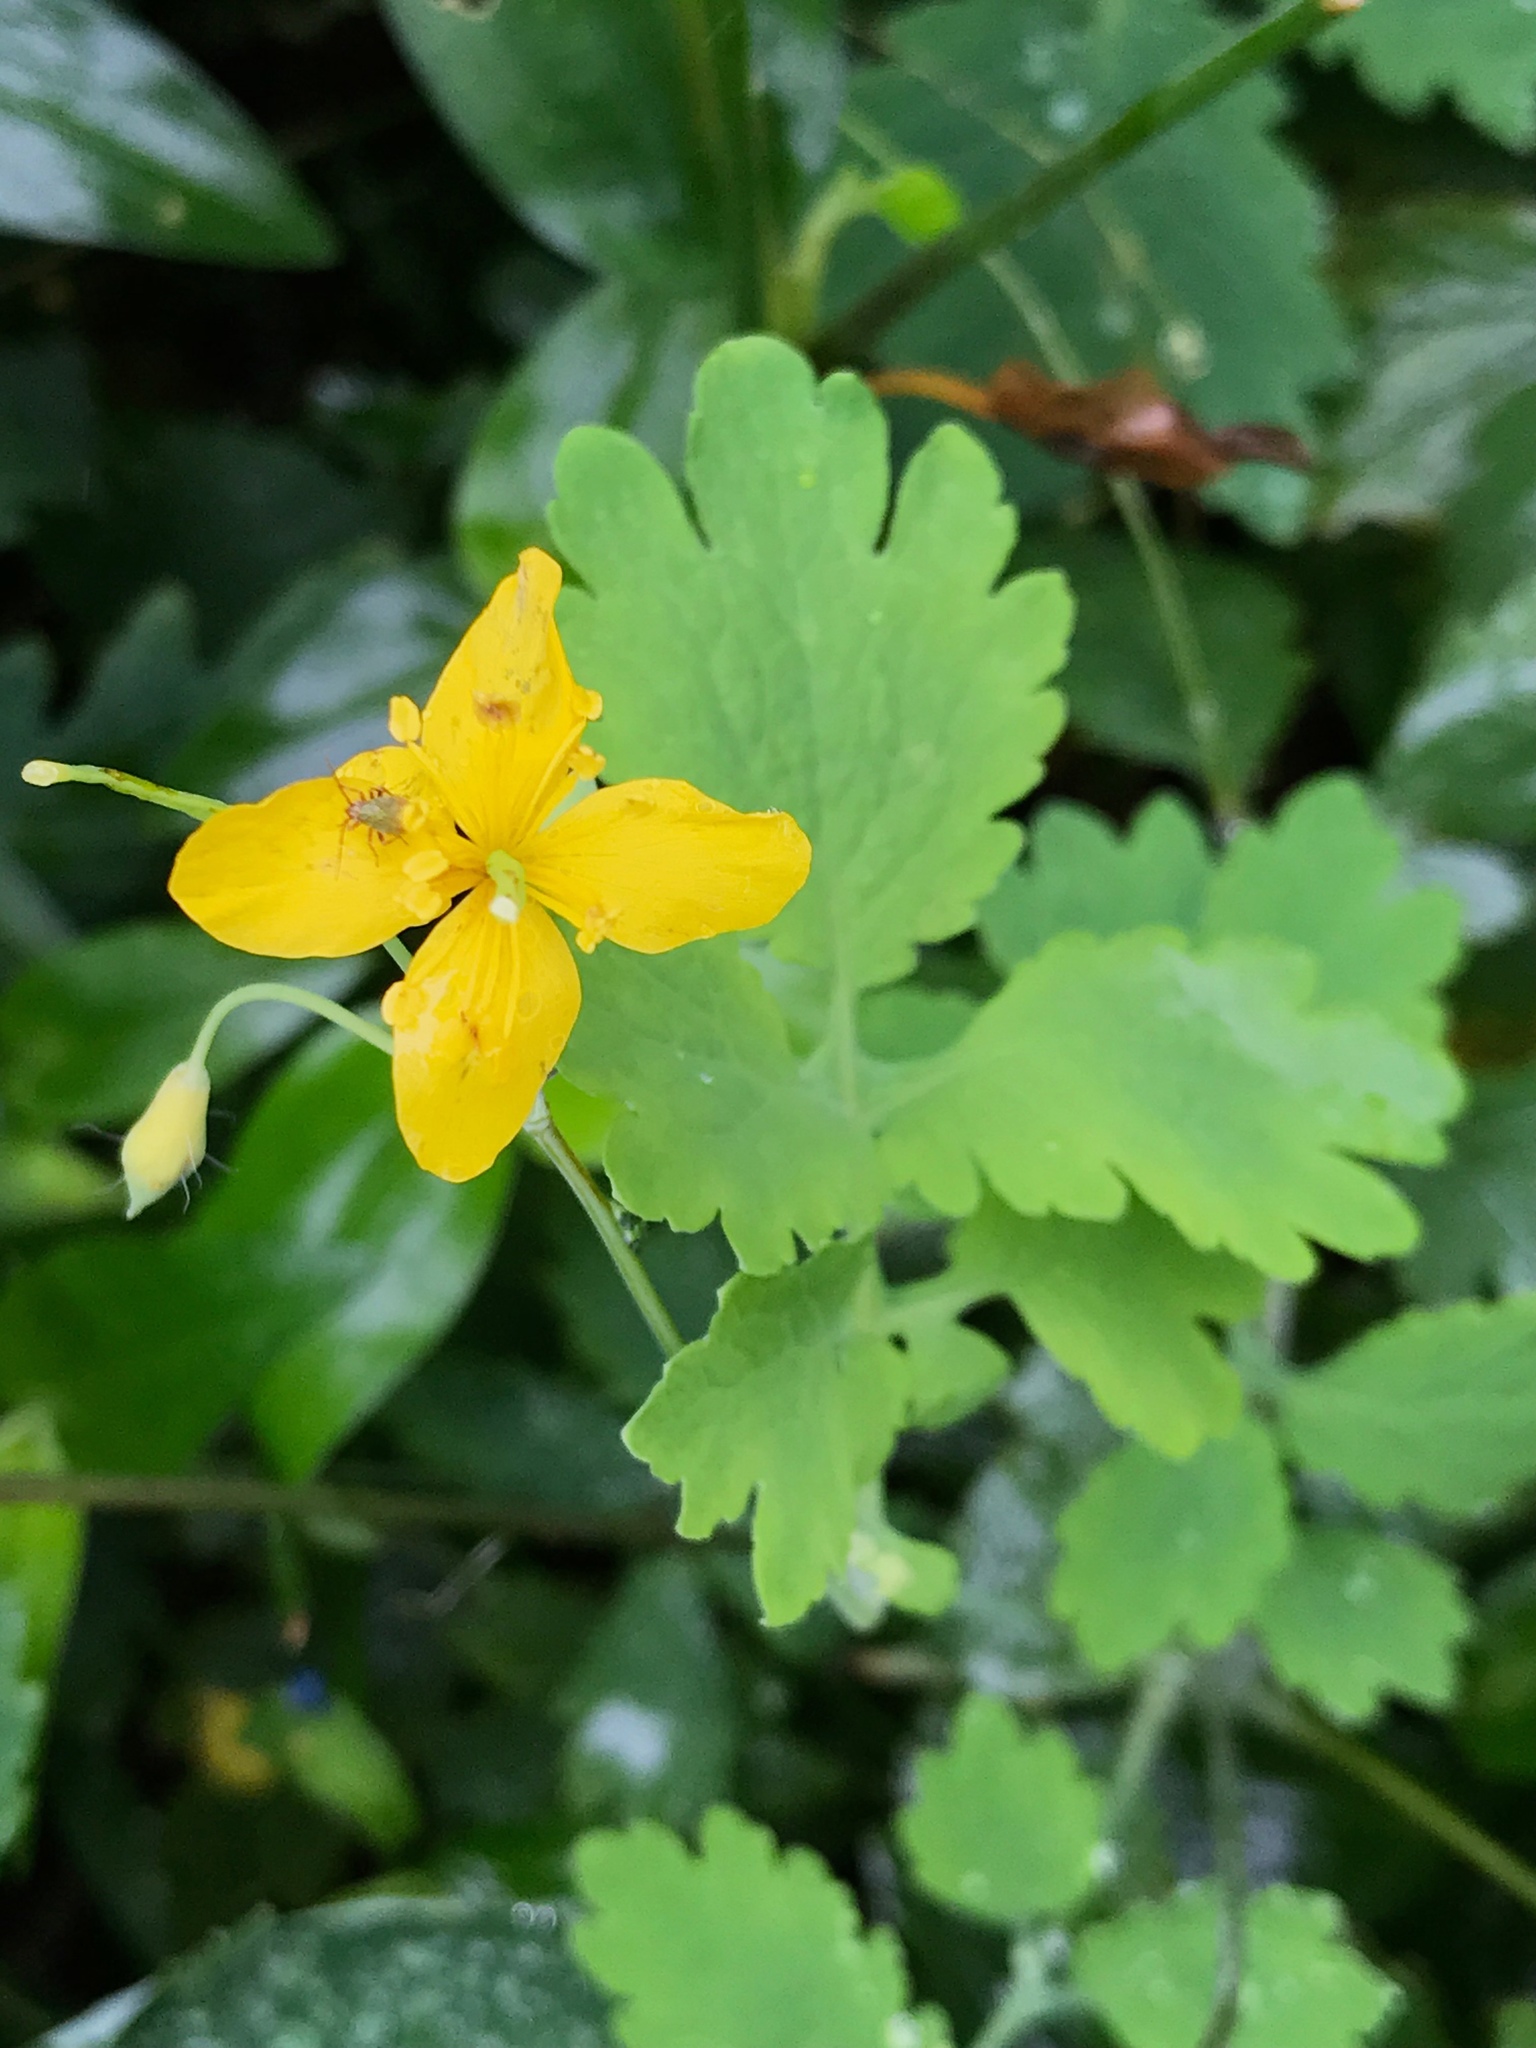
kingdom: Plantae
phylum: Tracheophyta
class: Magnoliopsida
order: Ranunculales
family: Papaveraceae
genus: Chelidonium
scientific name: Chelidonium majus
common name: Greater celandine
